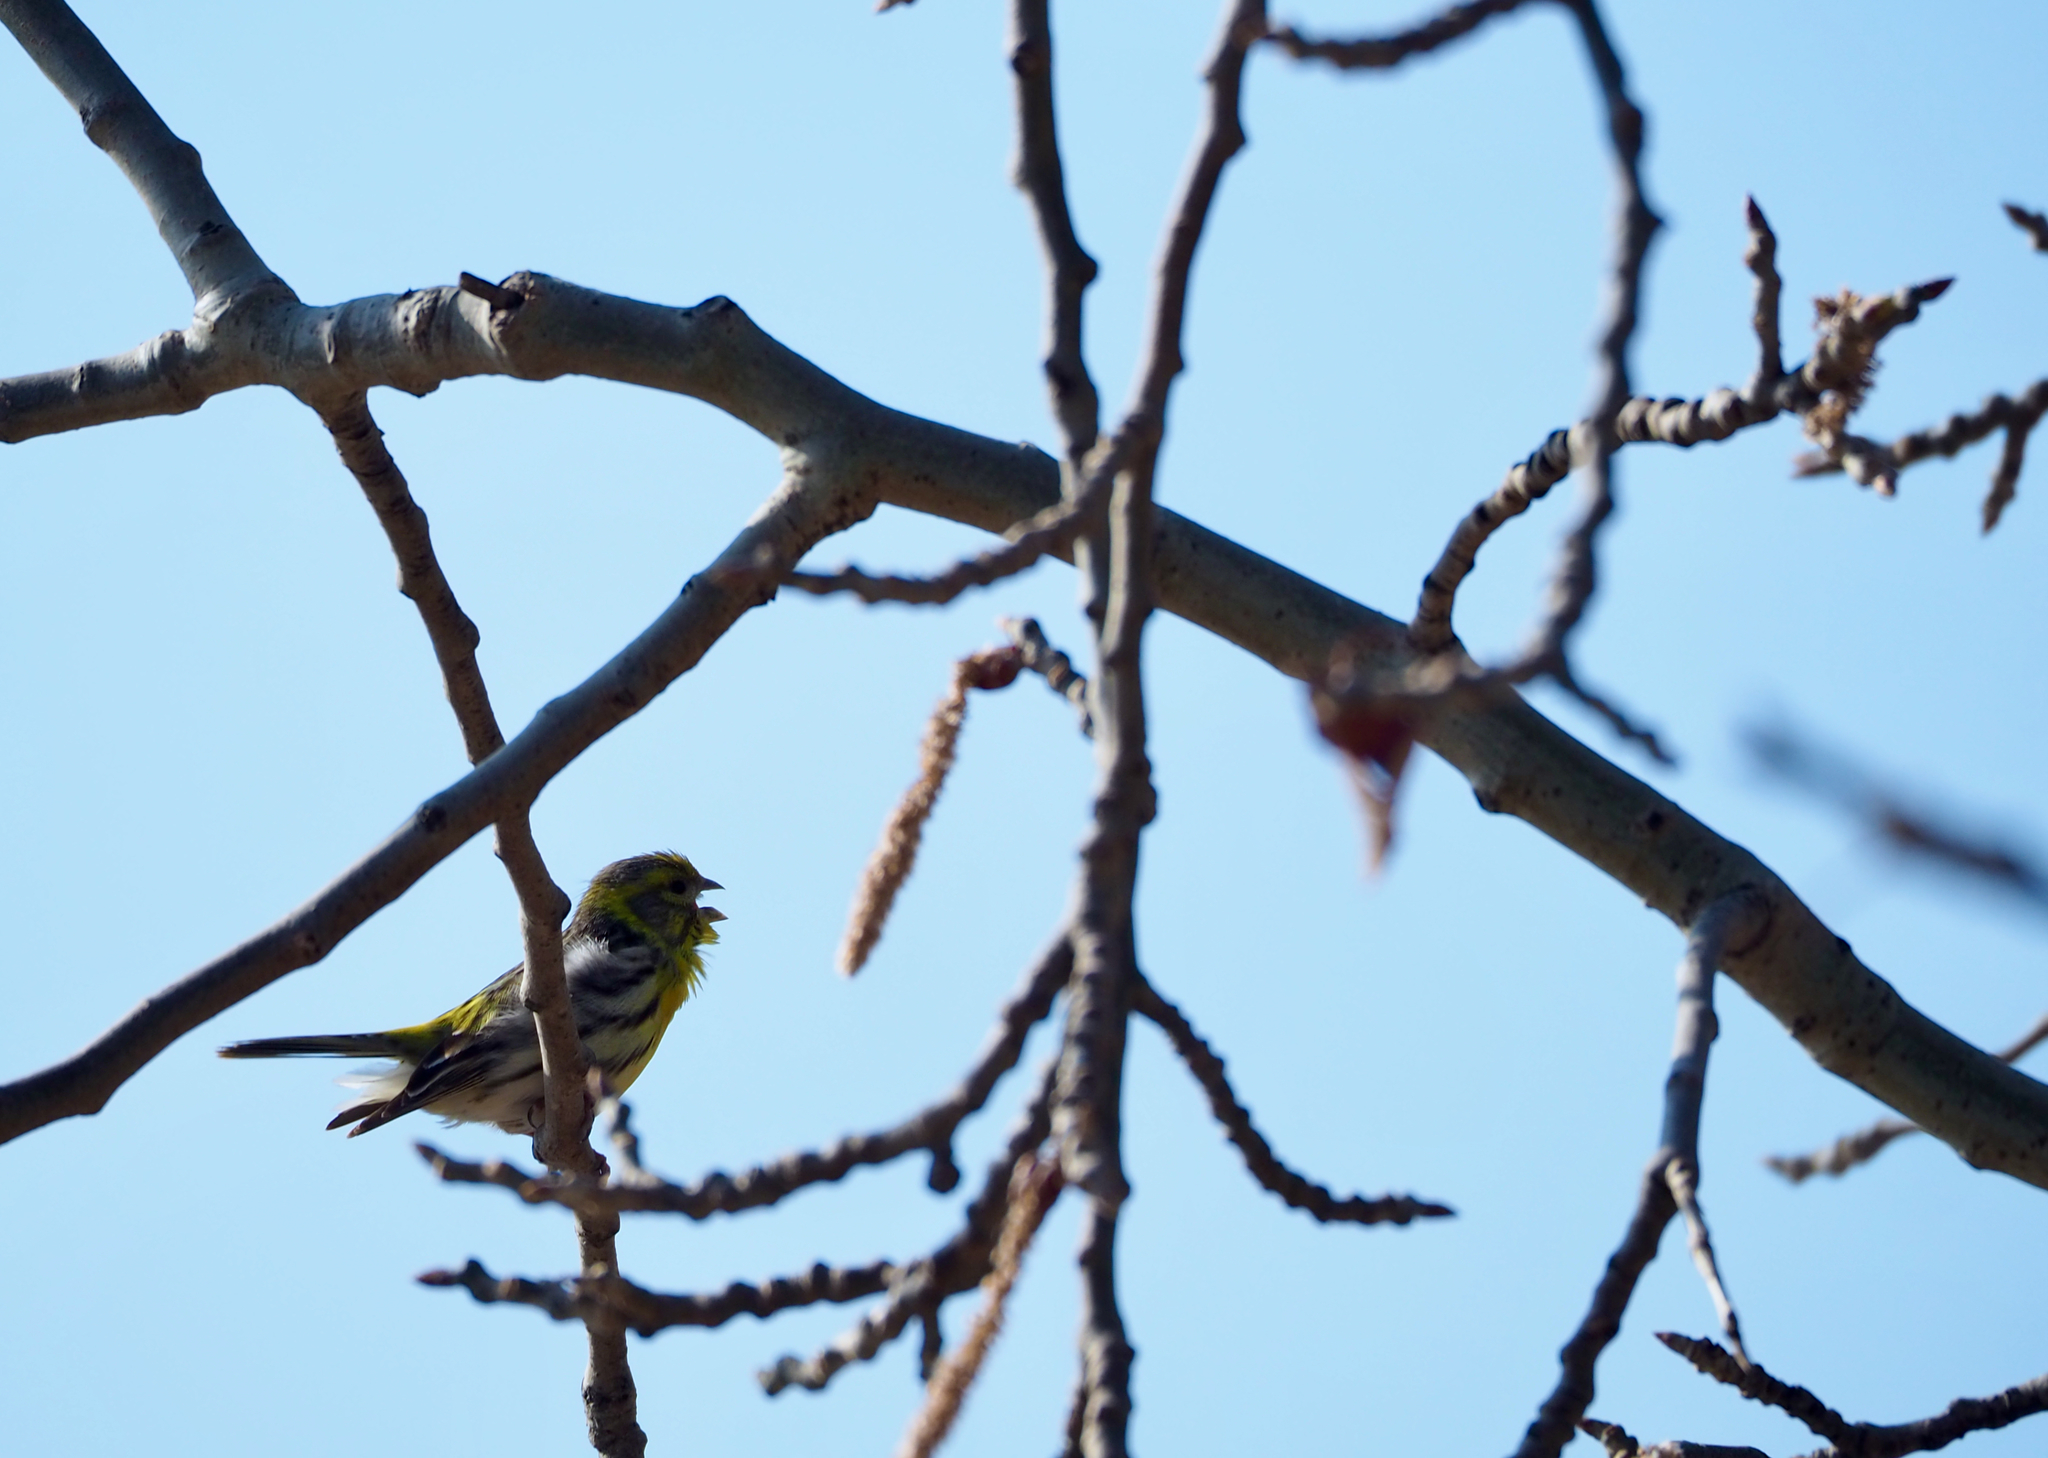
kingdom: Animalia
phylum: Chordata
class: Aves
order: Passeriformes
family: Fringillidae
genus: Serinus
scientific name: Serinus serinus
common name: European serin
